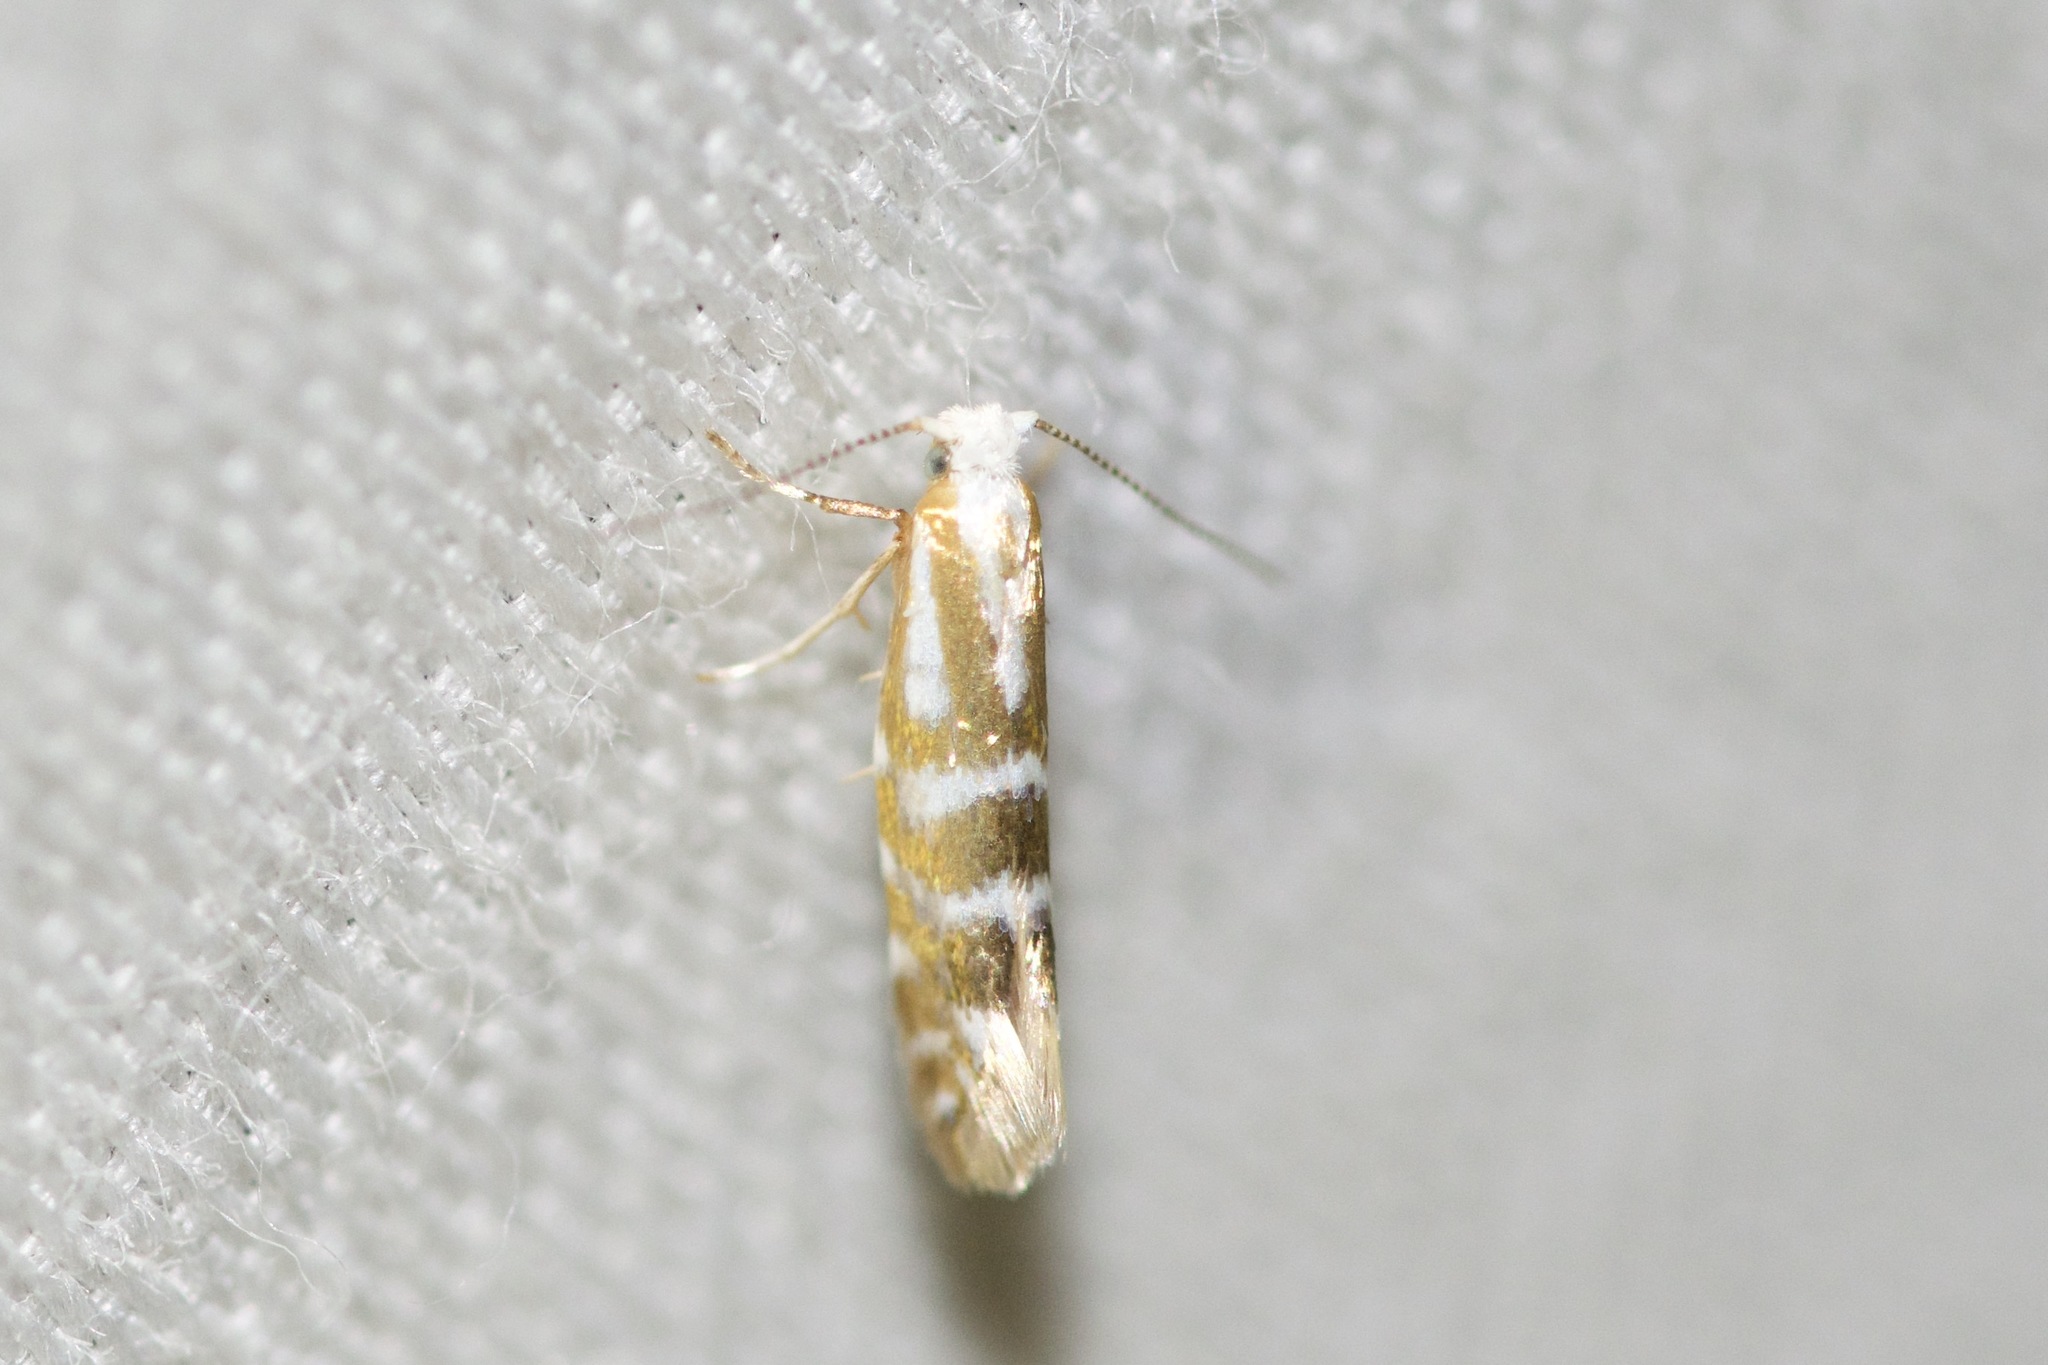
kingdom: Animalia
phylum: Arthropoda
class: Insecta
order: Lepidoptera
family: Argyresthiidae
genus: Argyresthia
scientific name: Argyresthia aureoargentella
